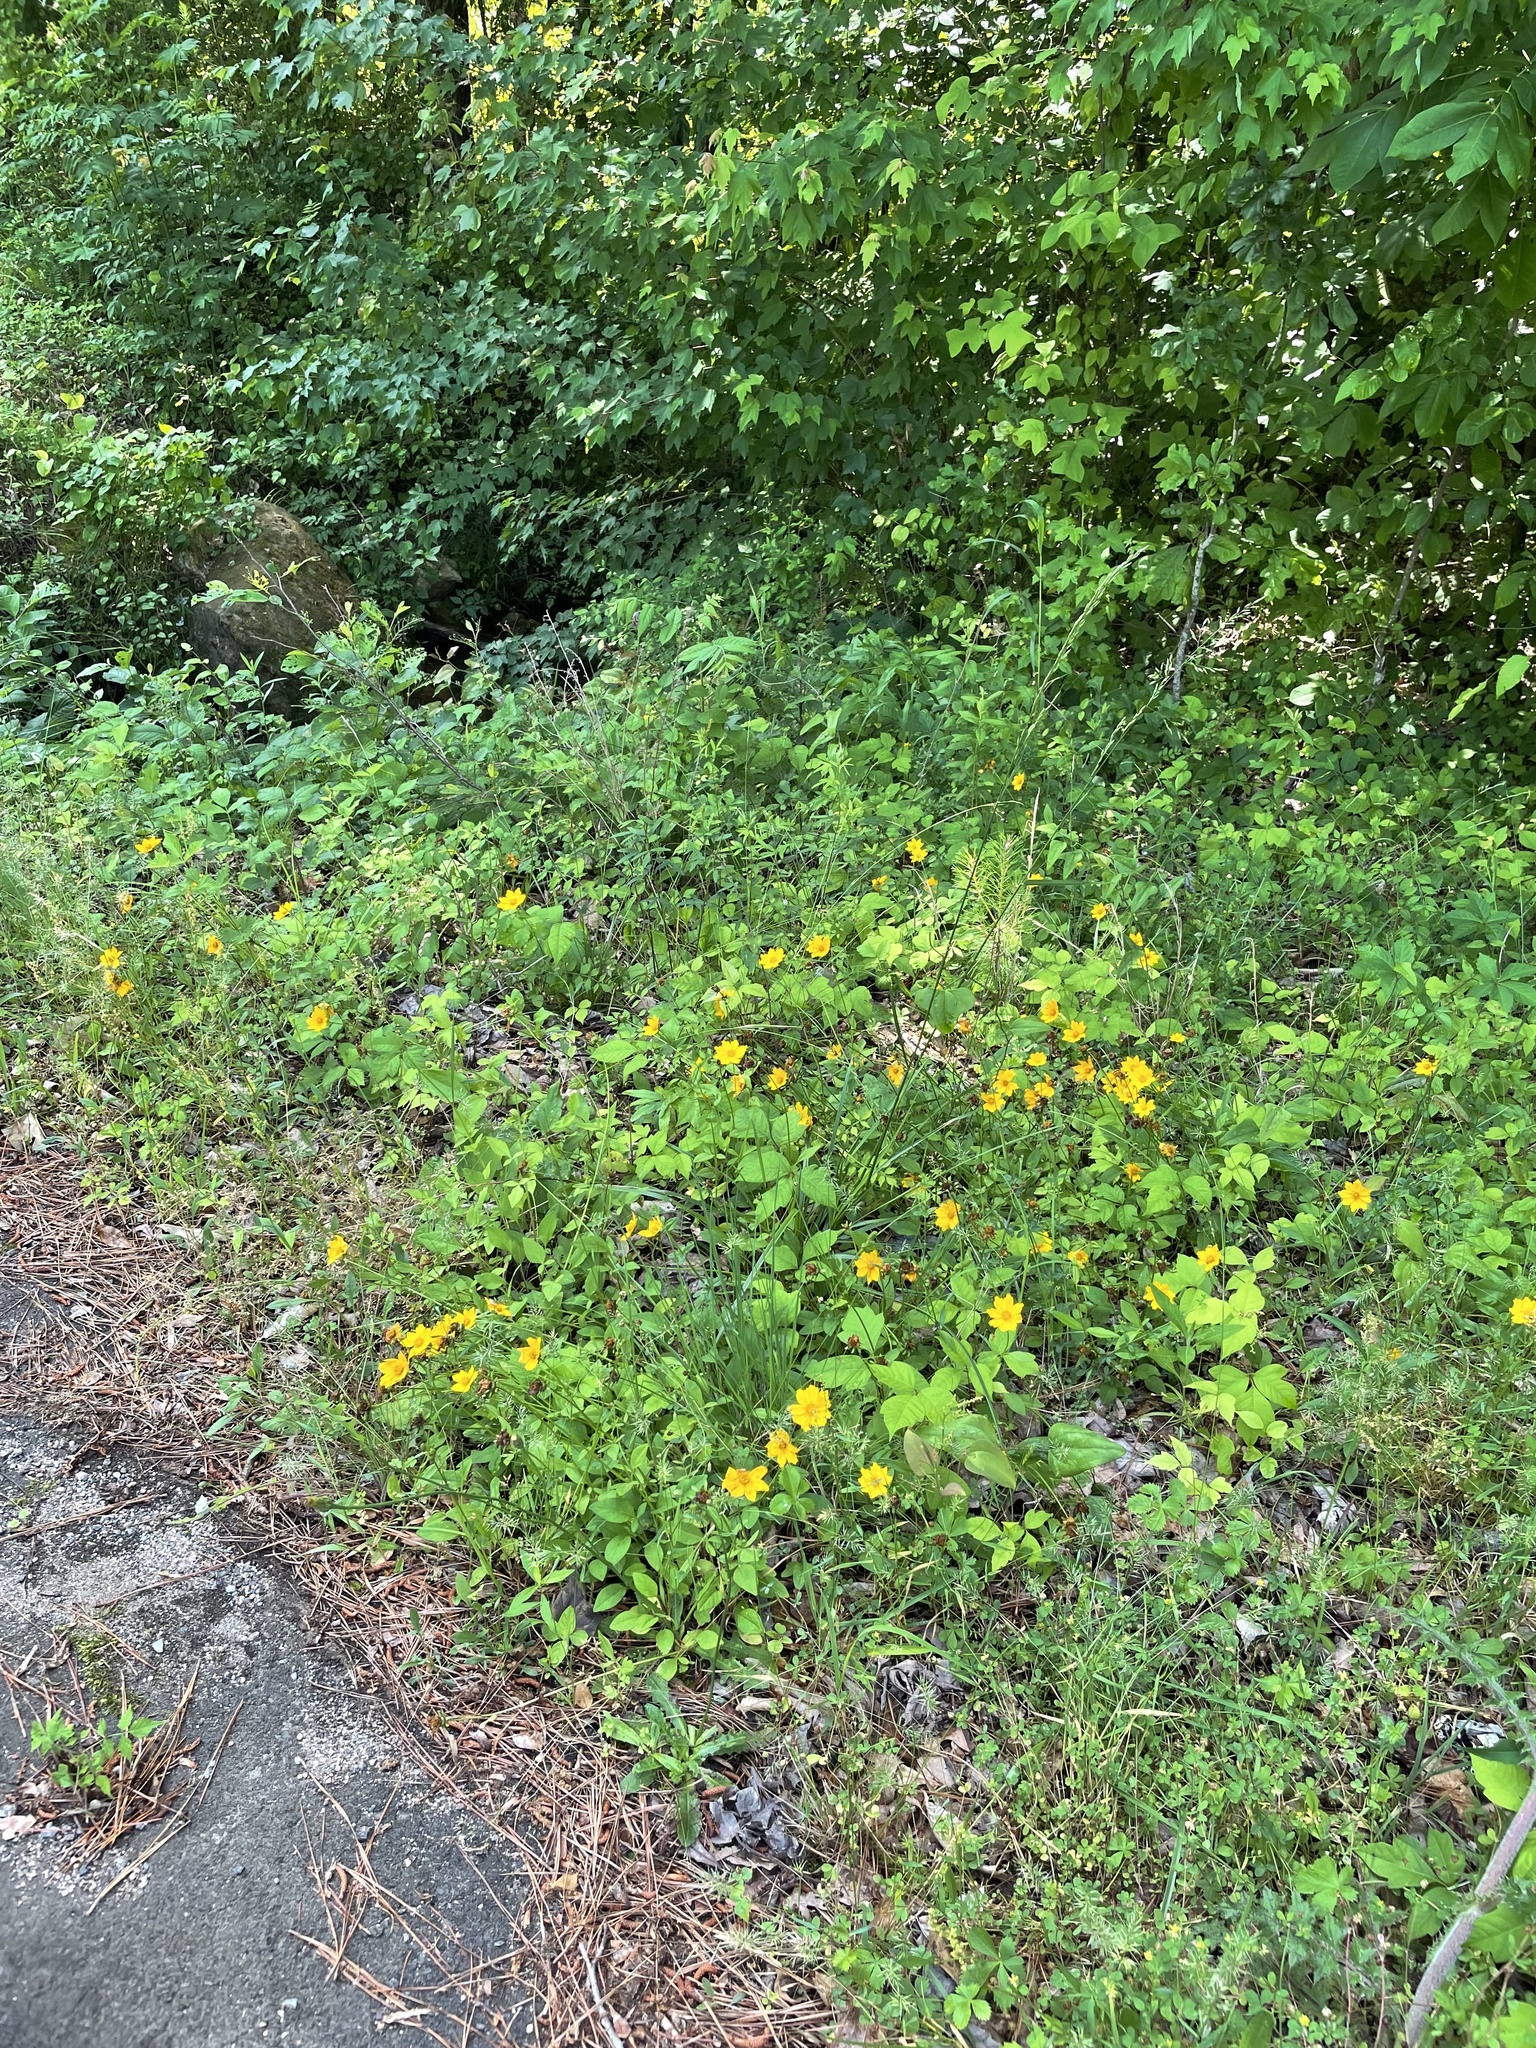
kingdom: Plantae
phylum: Tracheophyta
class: Magnoliopsida
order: Asterales
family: Asteraceae
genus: Coreopsis
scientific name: Coreopsis auriculata
